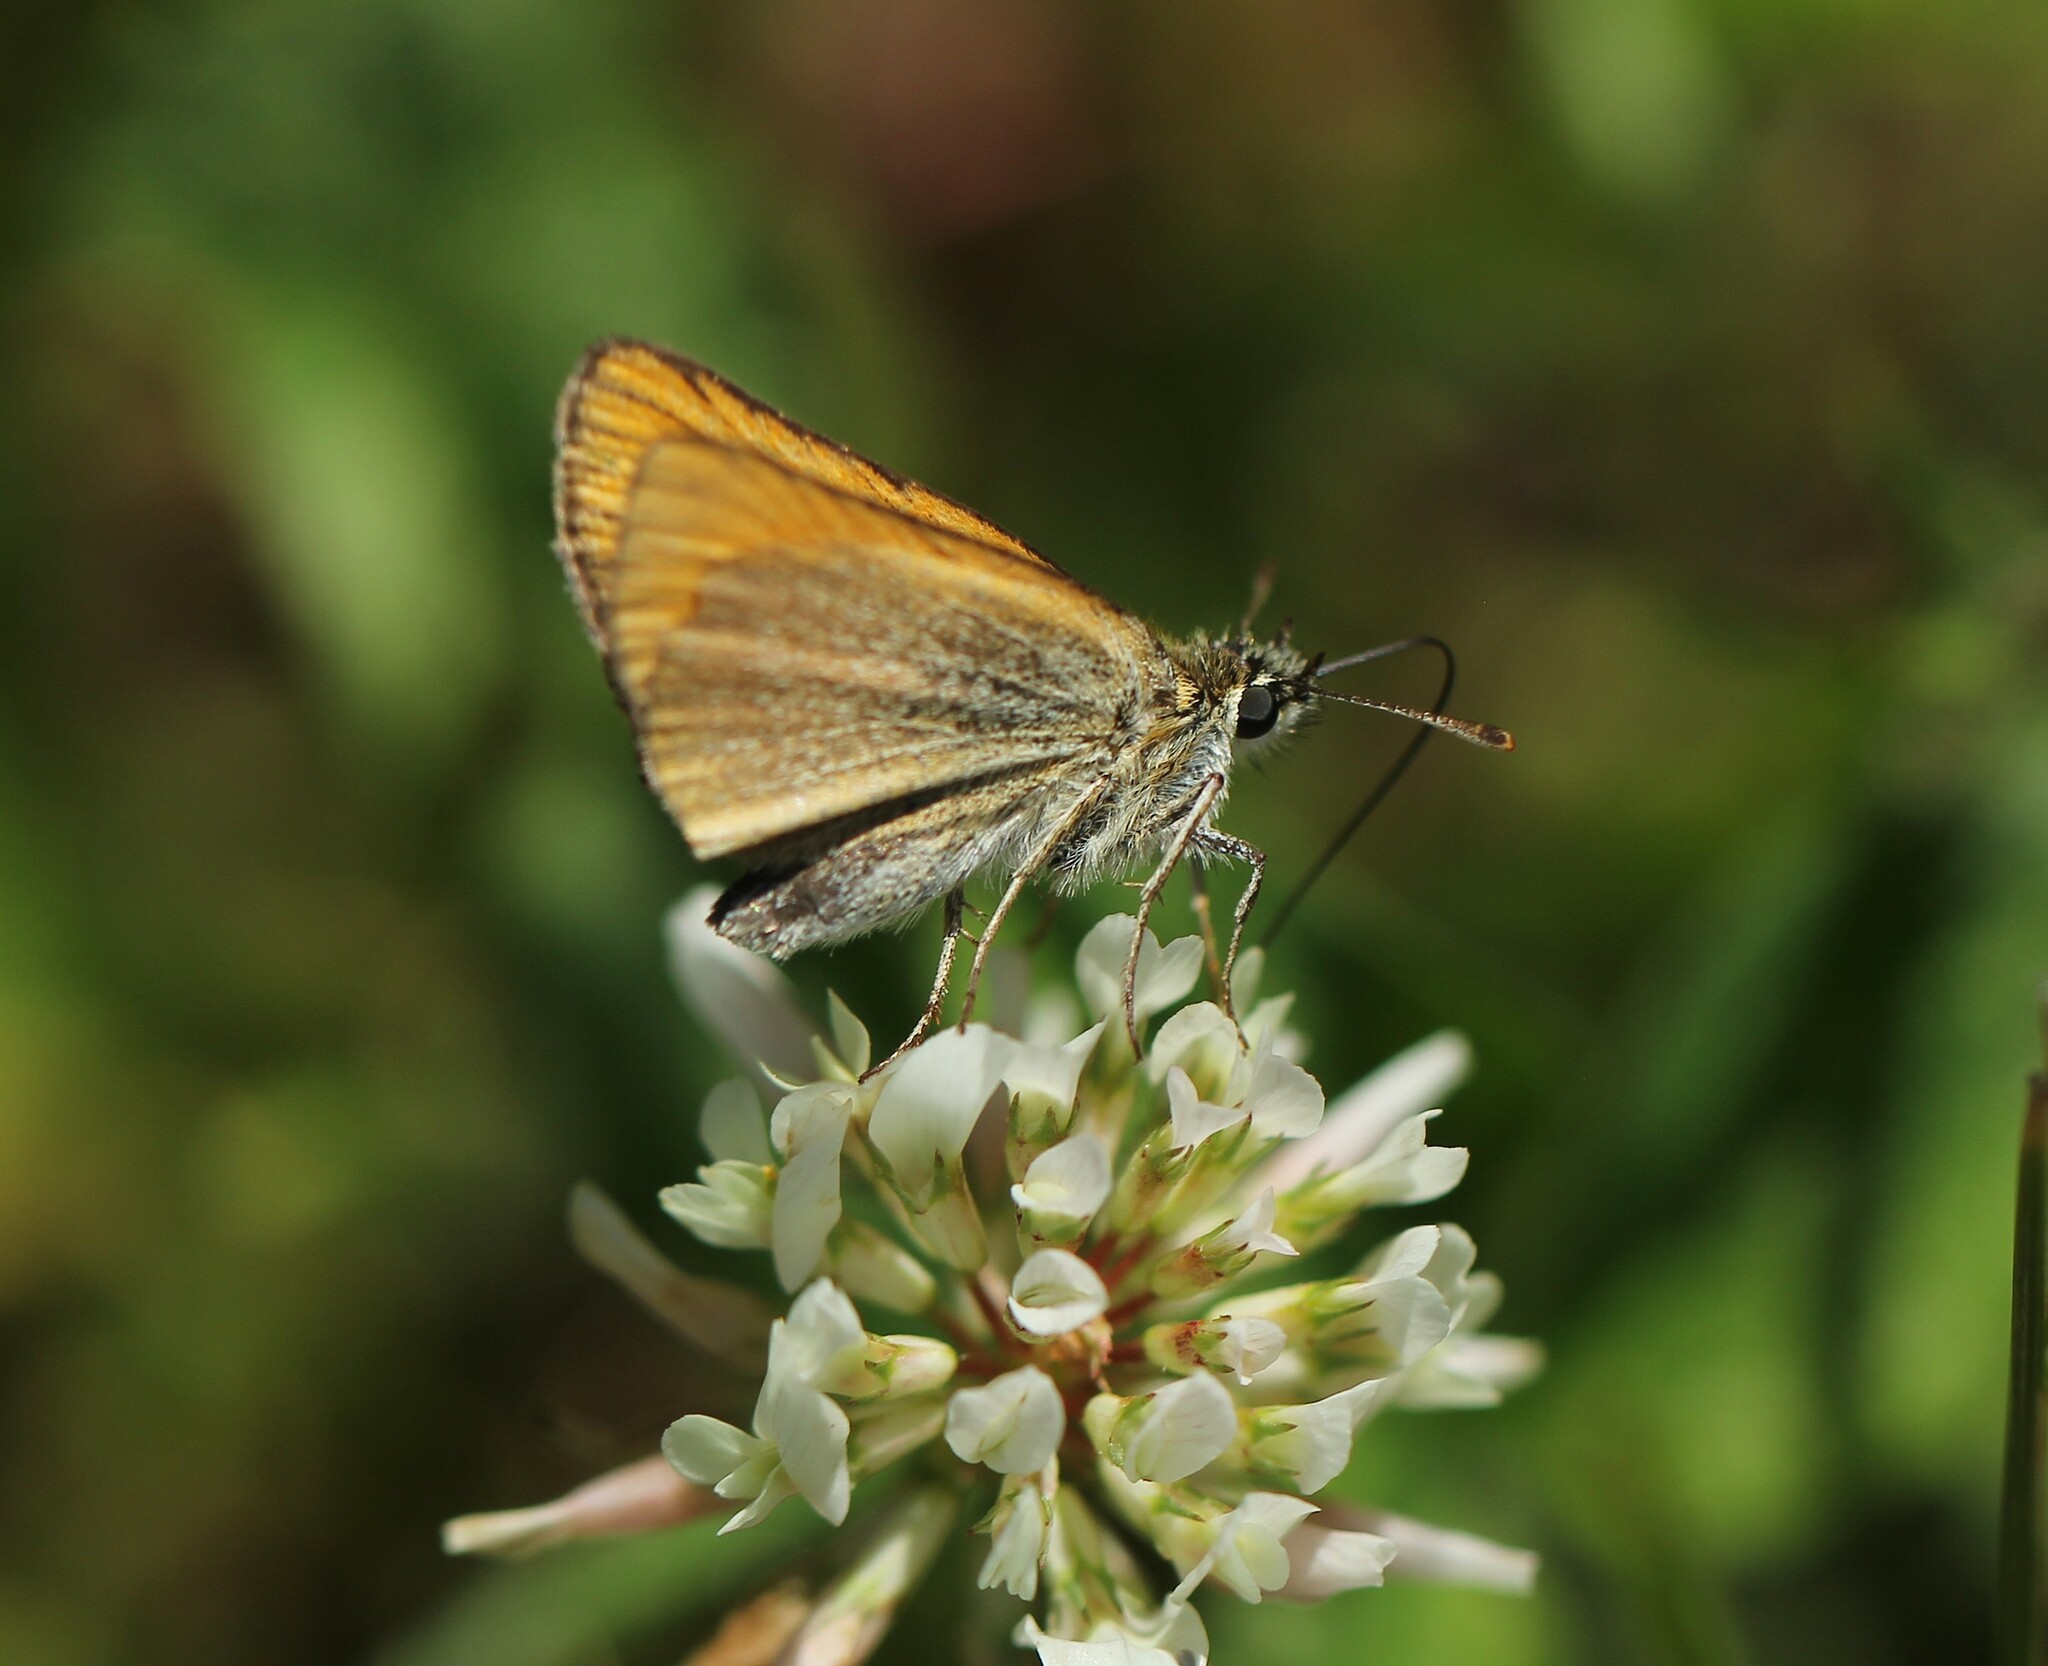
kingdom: Animalia
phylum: Arthropoda
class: Insecta
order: Lepidoptera
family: Hesperiidae
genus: Thymelicus
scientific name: Thymelicus lineola
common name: Essex skipper
